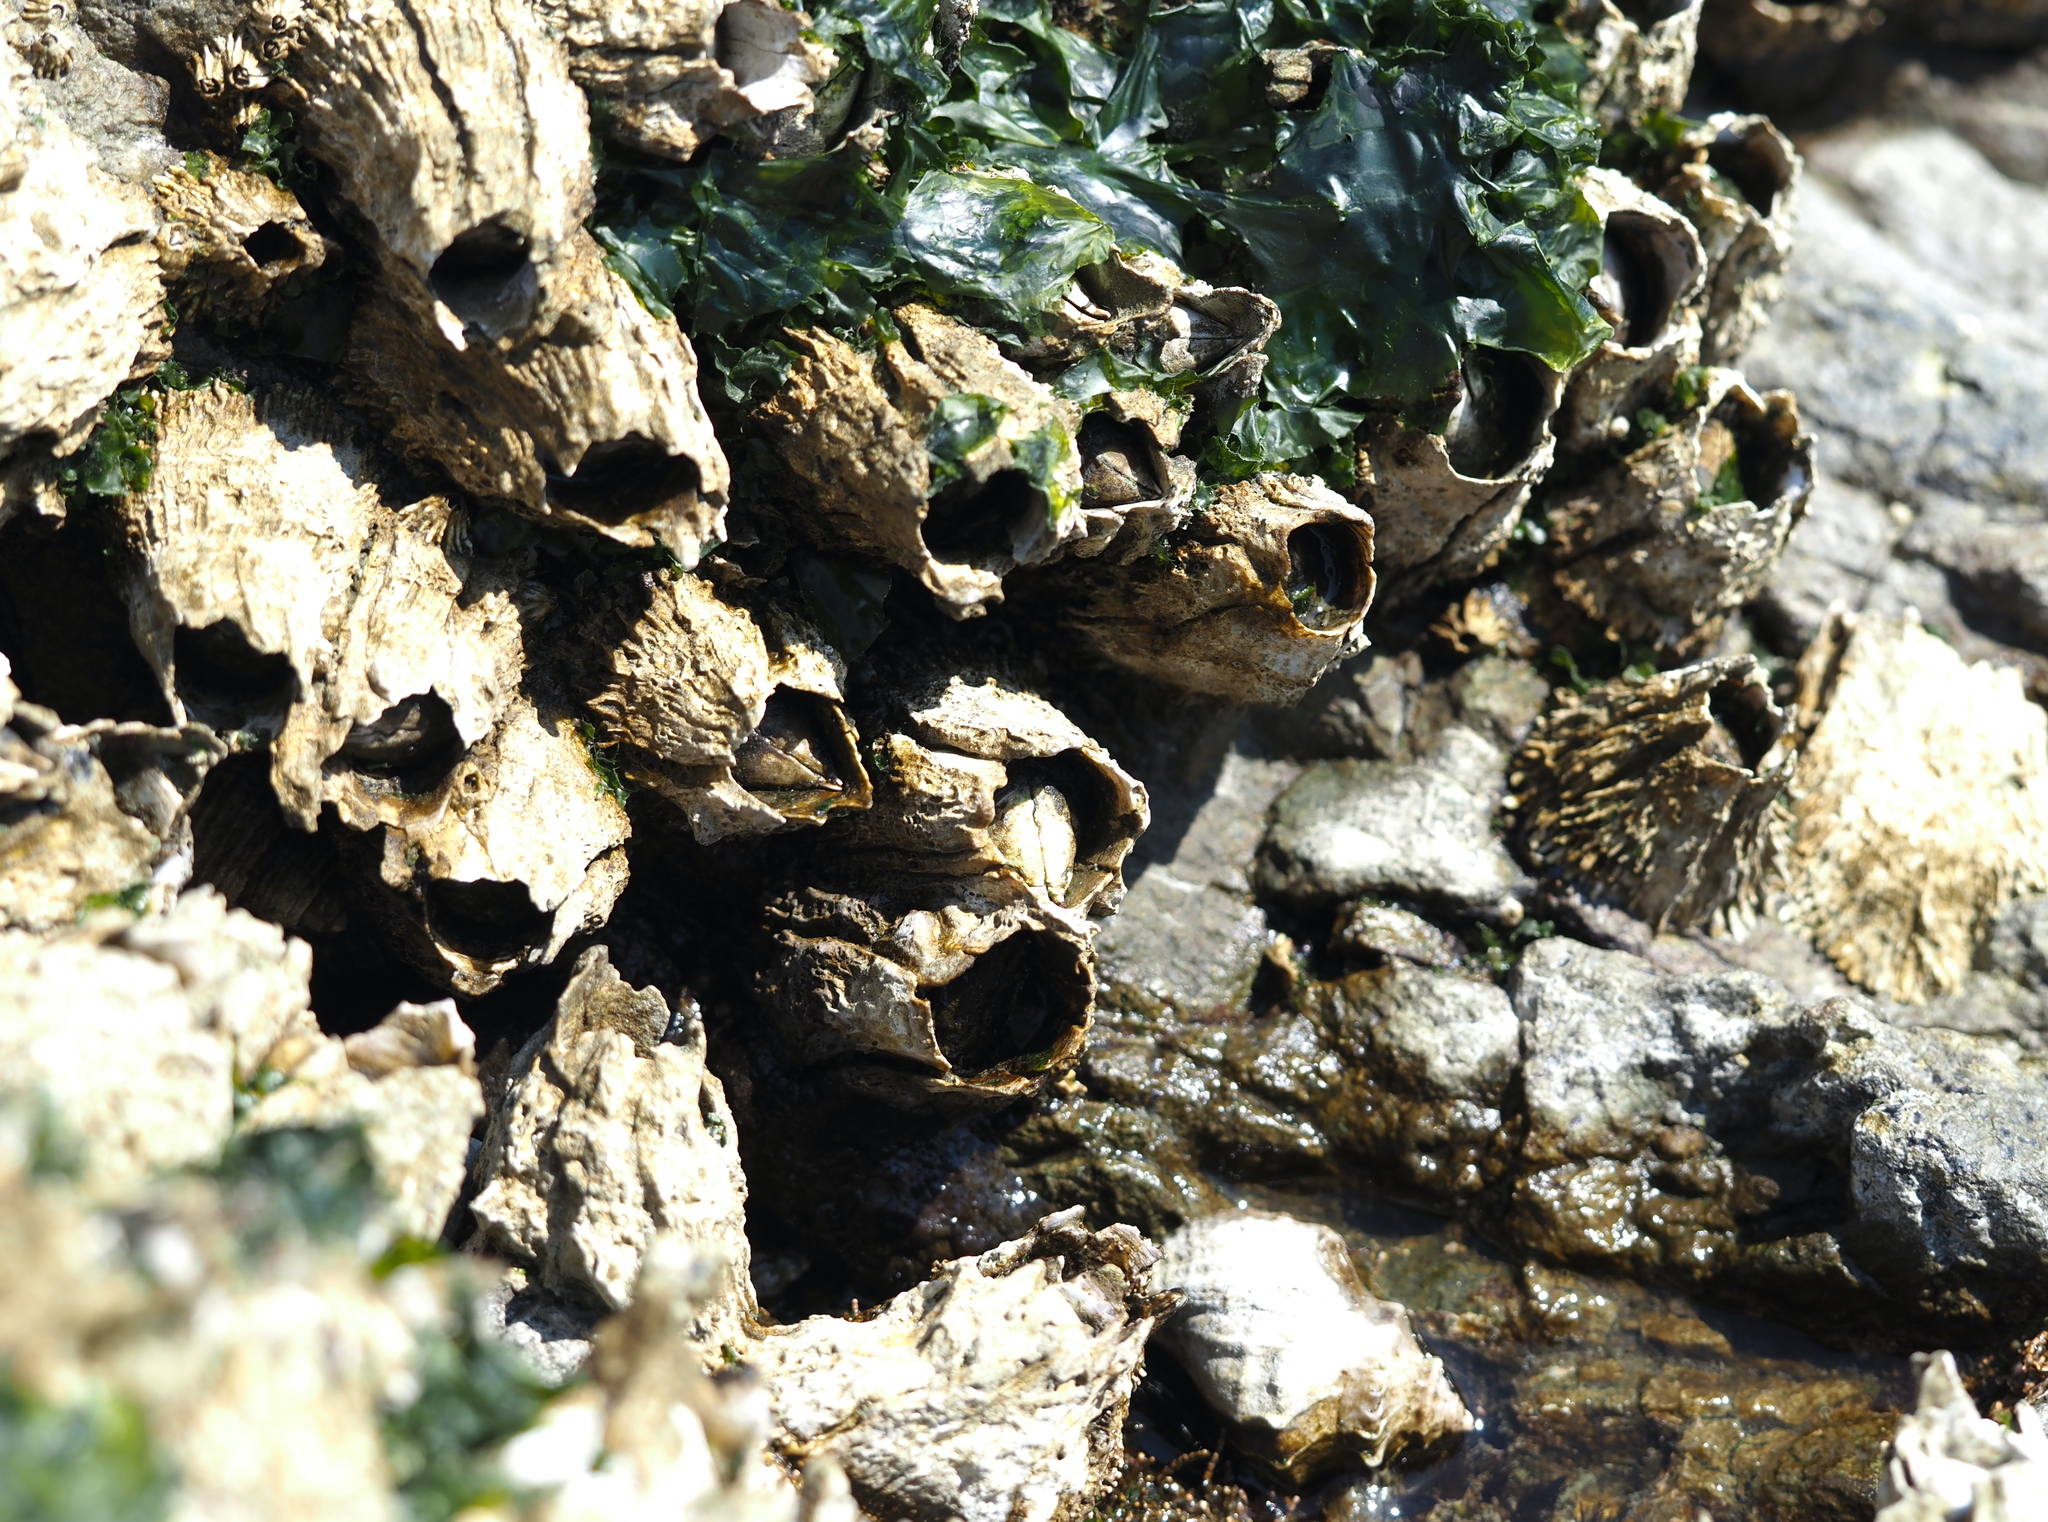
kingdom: Animalia
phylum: Arthropoda
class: Maxillopoda
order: Sessilia
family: Archaeobalanidae
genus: Semibalanus
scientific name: Semibalanus cariosus
